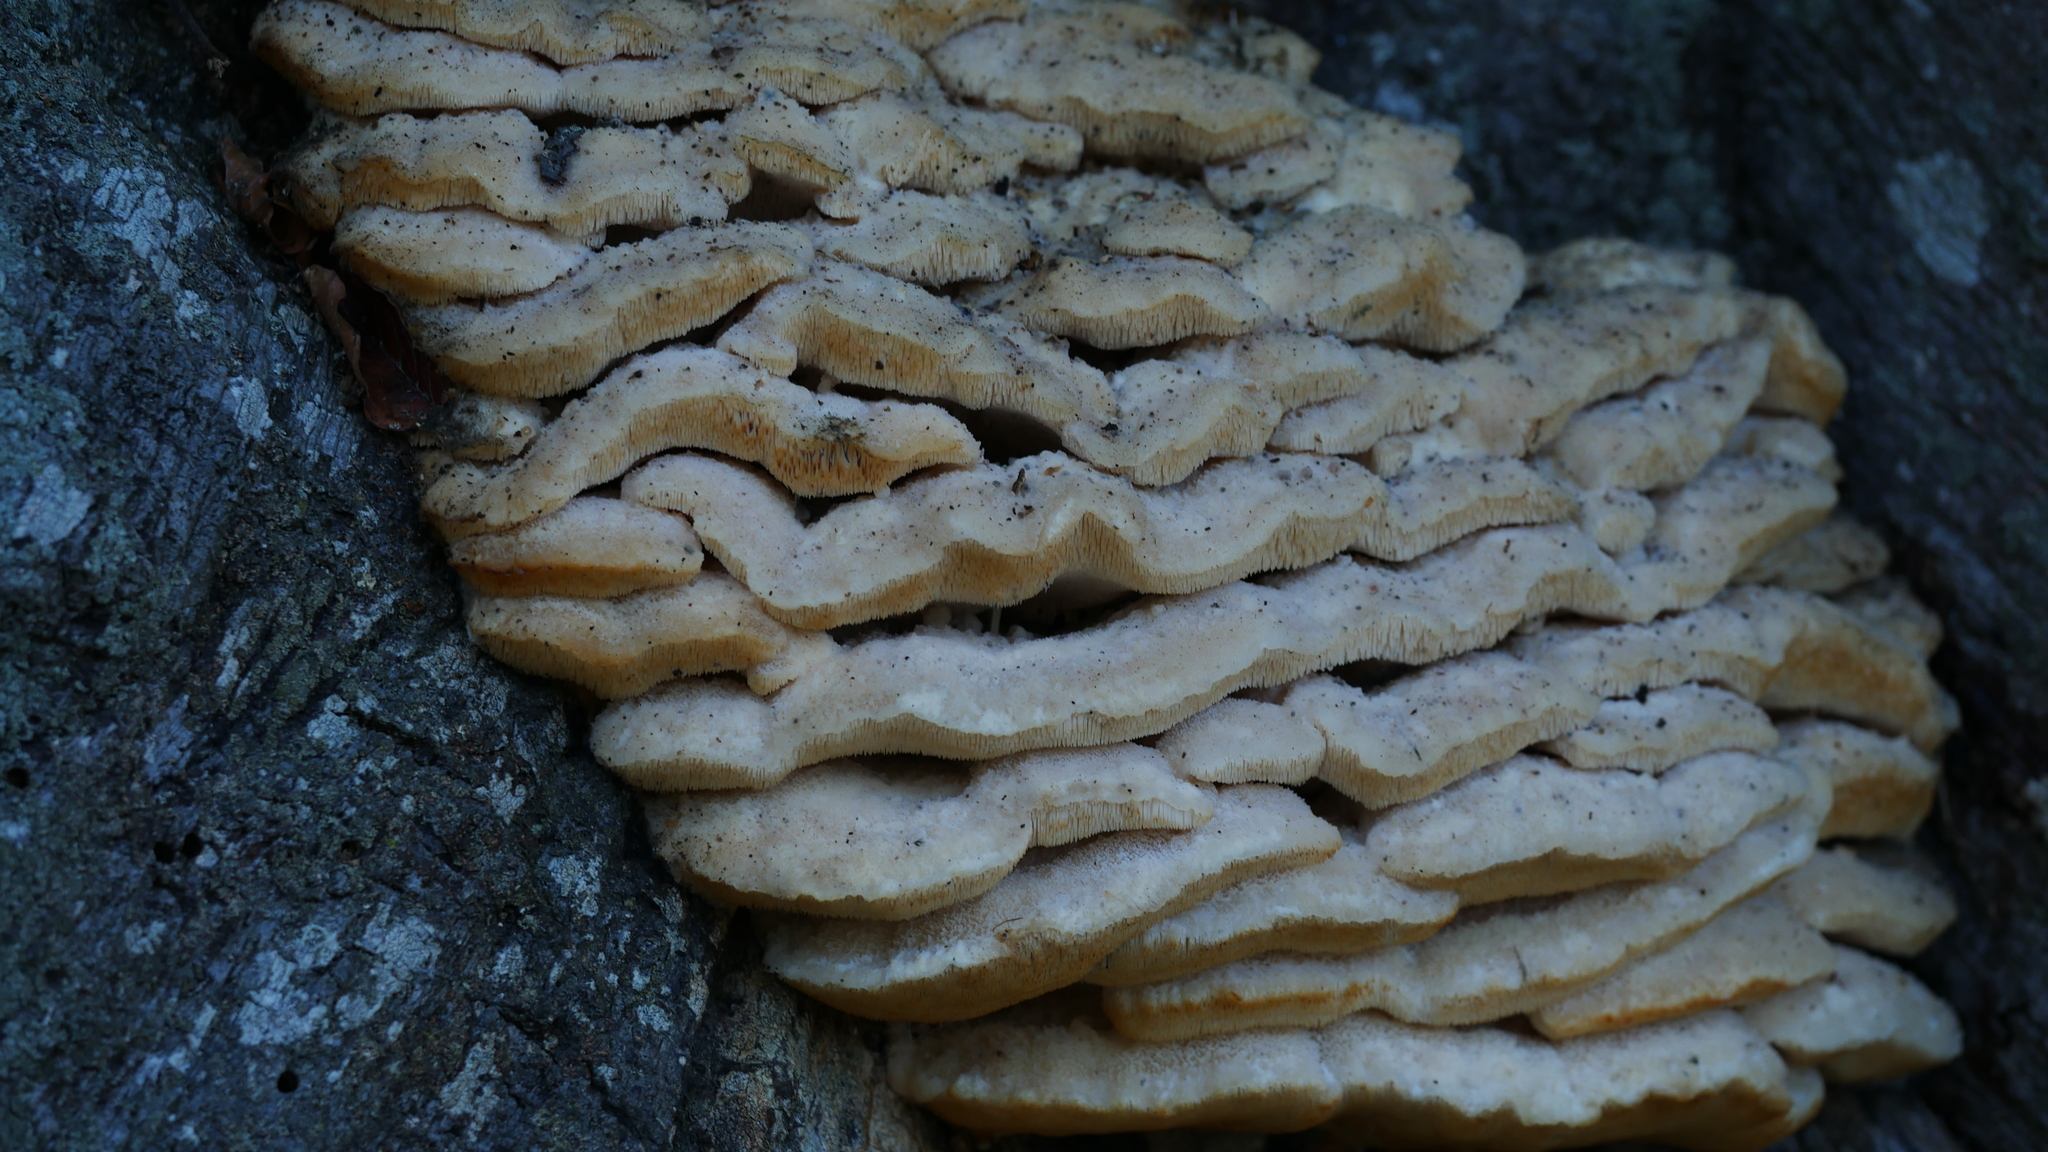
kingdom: Fungi
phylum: Basidiomycota
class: Agaricomycetes
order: Polyporales
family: Meruliaceae
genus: Climacodon
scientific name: Climacodon septentrionalis
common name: Northern tooth
